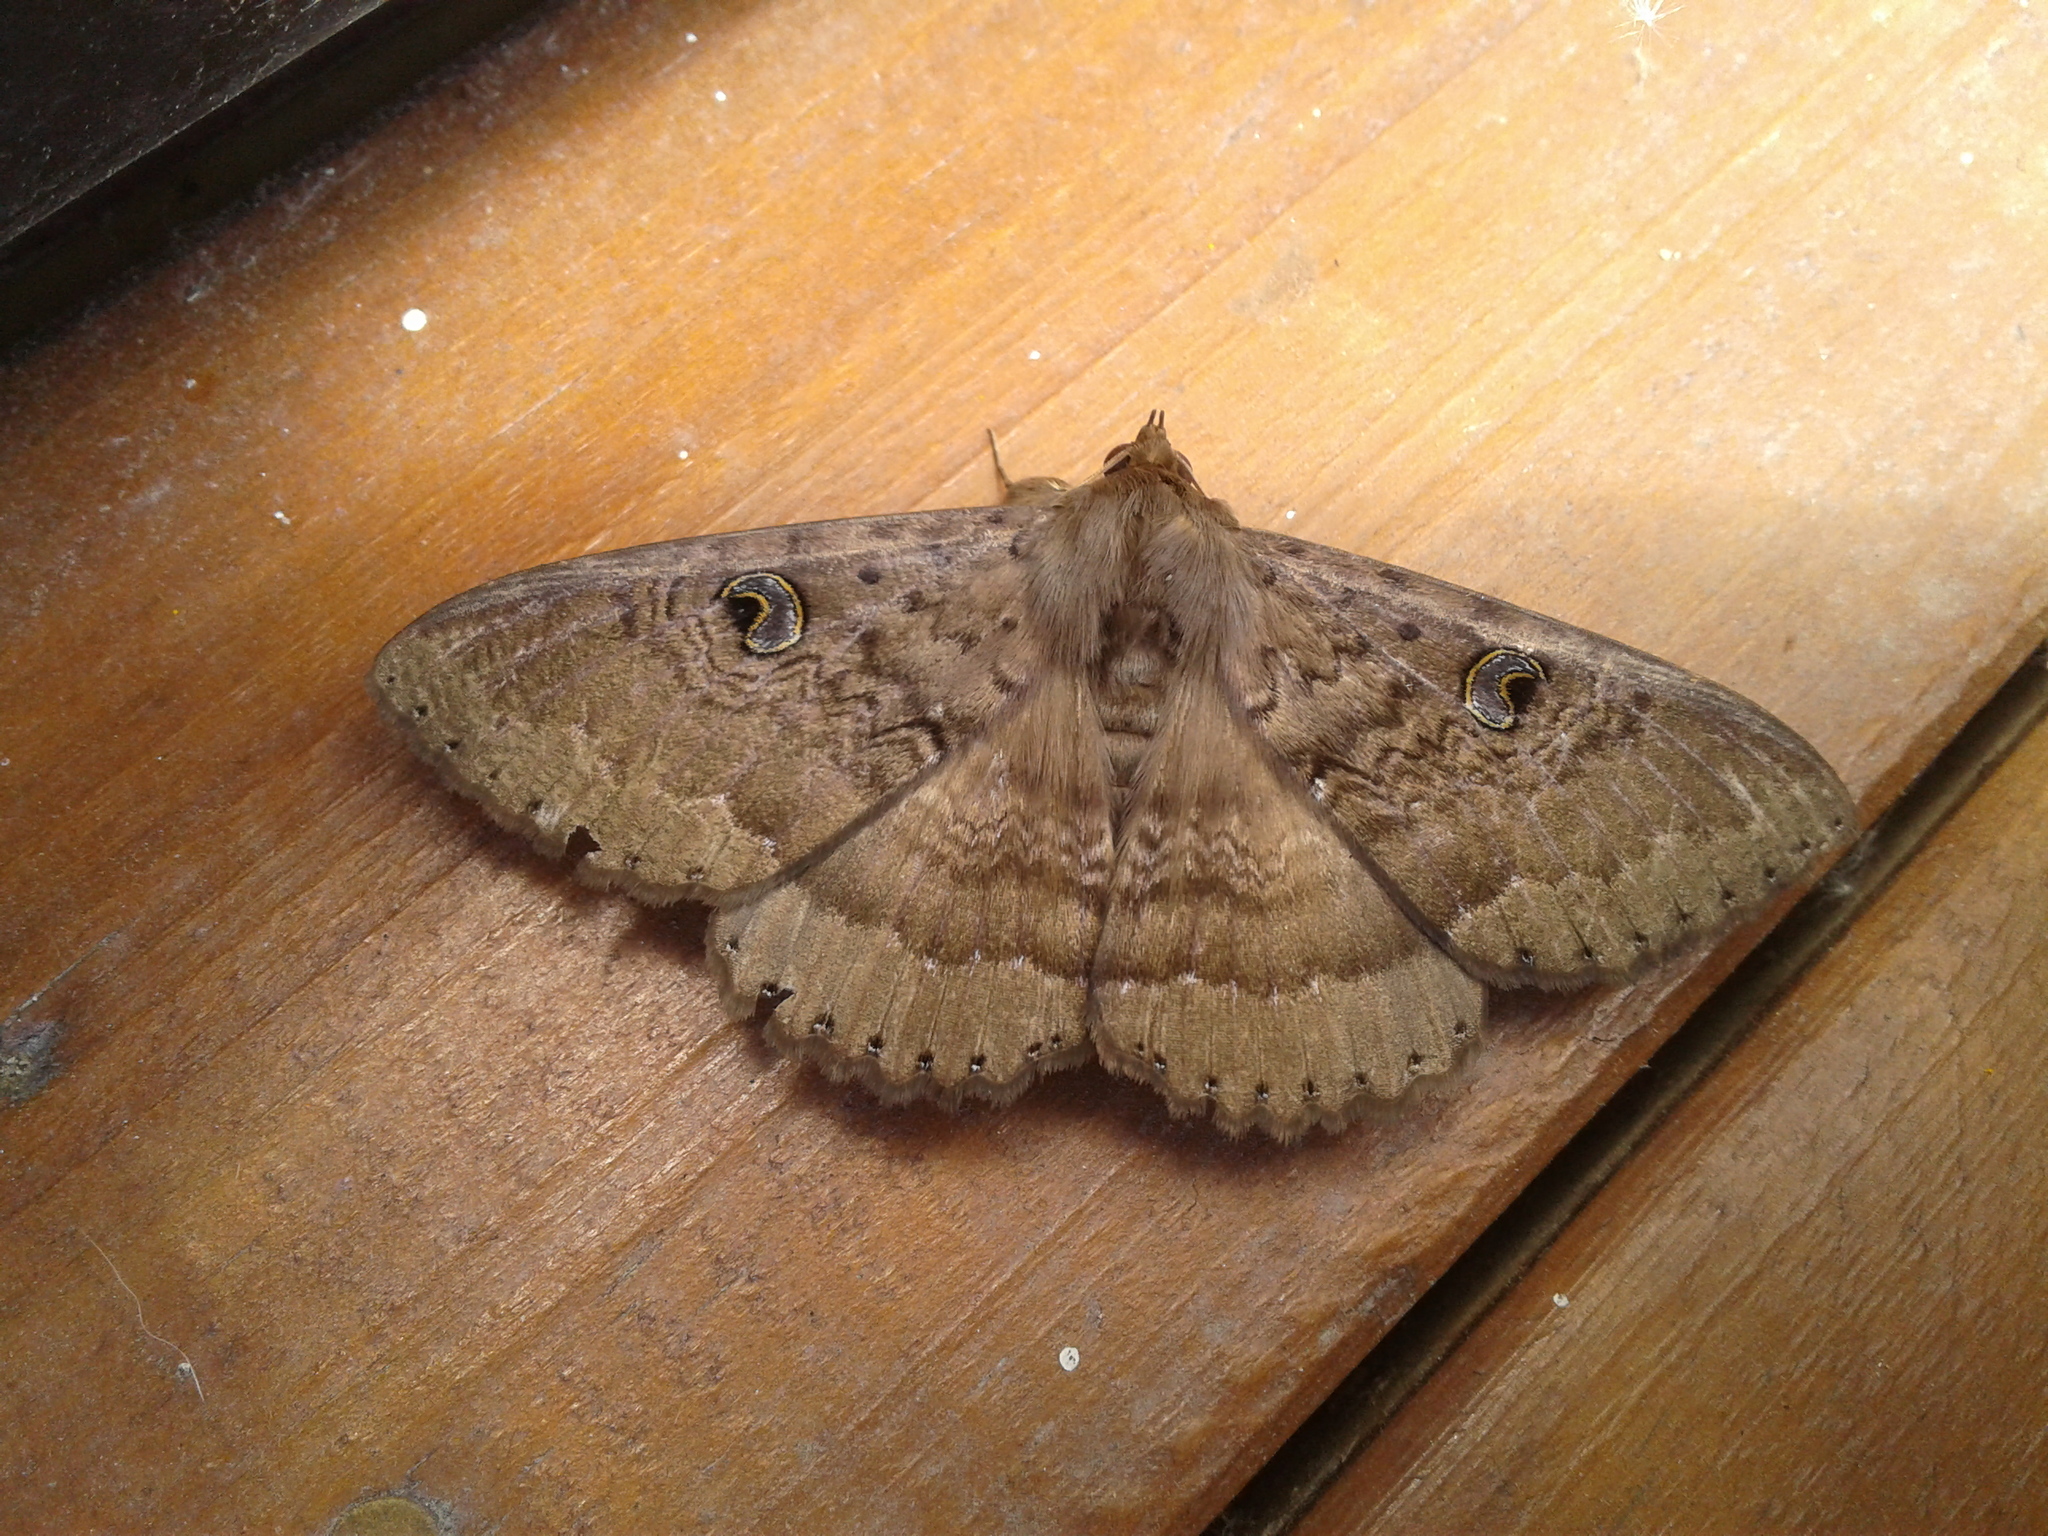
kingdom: Animalia
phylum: Arthropoda
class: Insecta
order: Lepidoptera
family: Erebidae
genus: Dasypodia
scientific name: Dasypodia cymatodes
